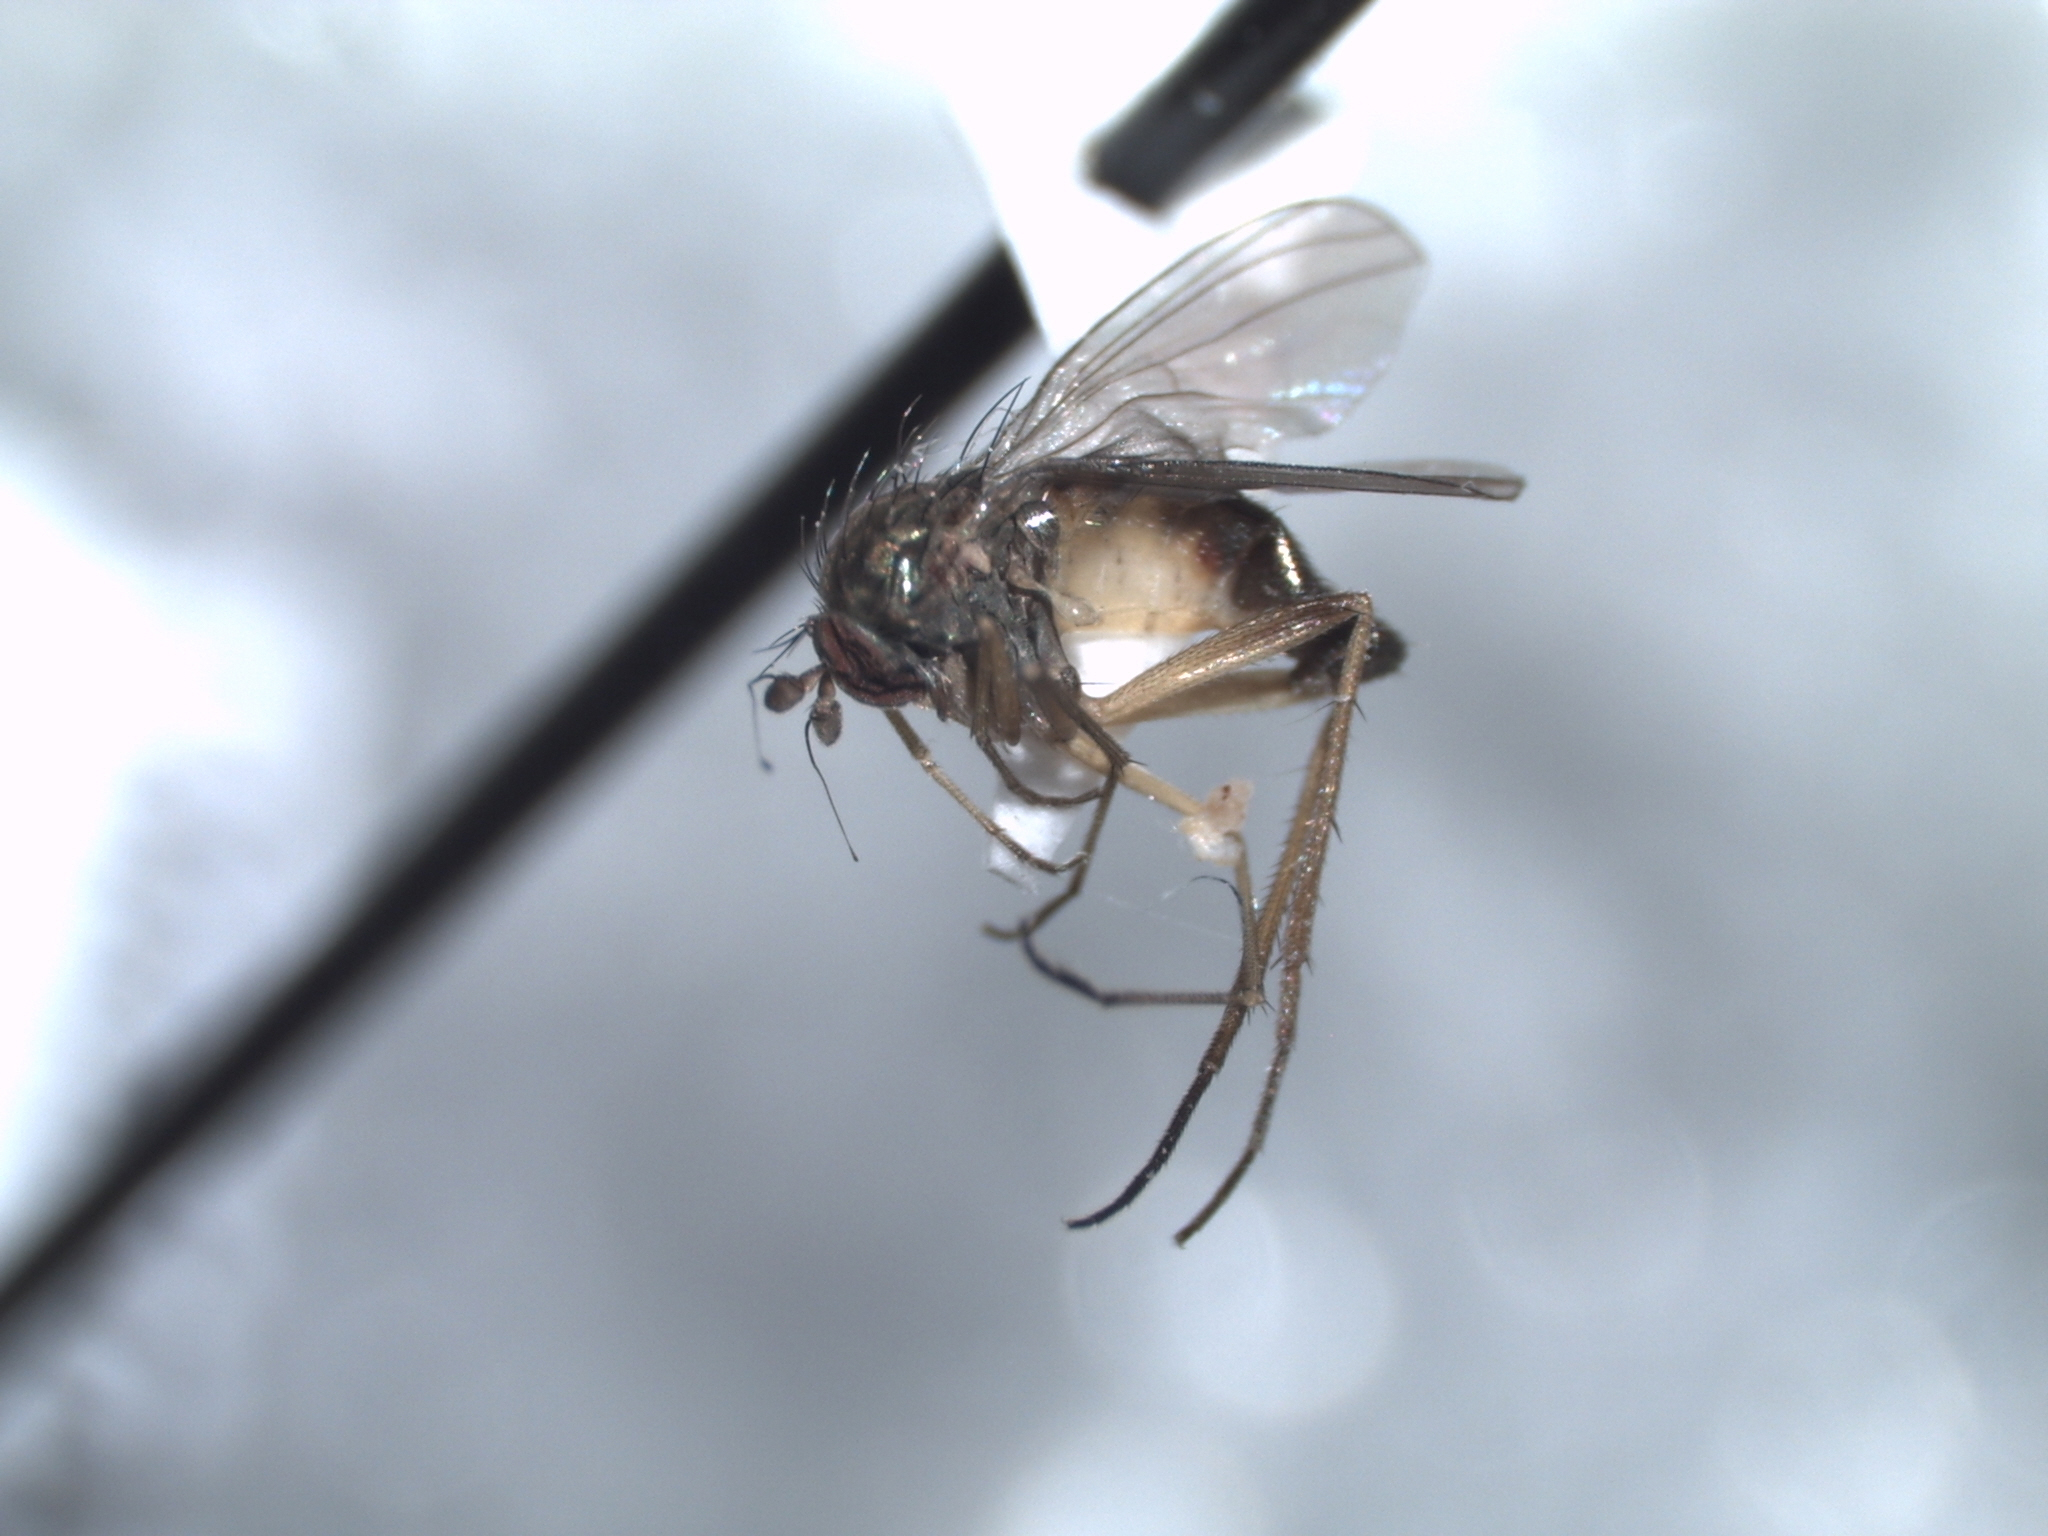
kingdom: Animalia
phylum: Arthropoda
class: Insecta
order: Diptera
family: Dolichopodidae
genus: Calyxochaetus
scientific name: Calyxochaetus
